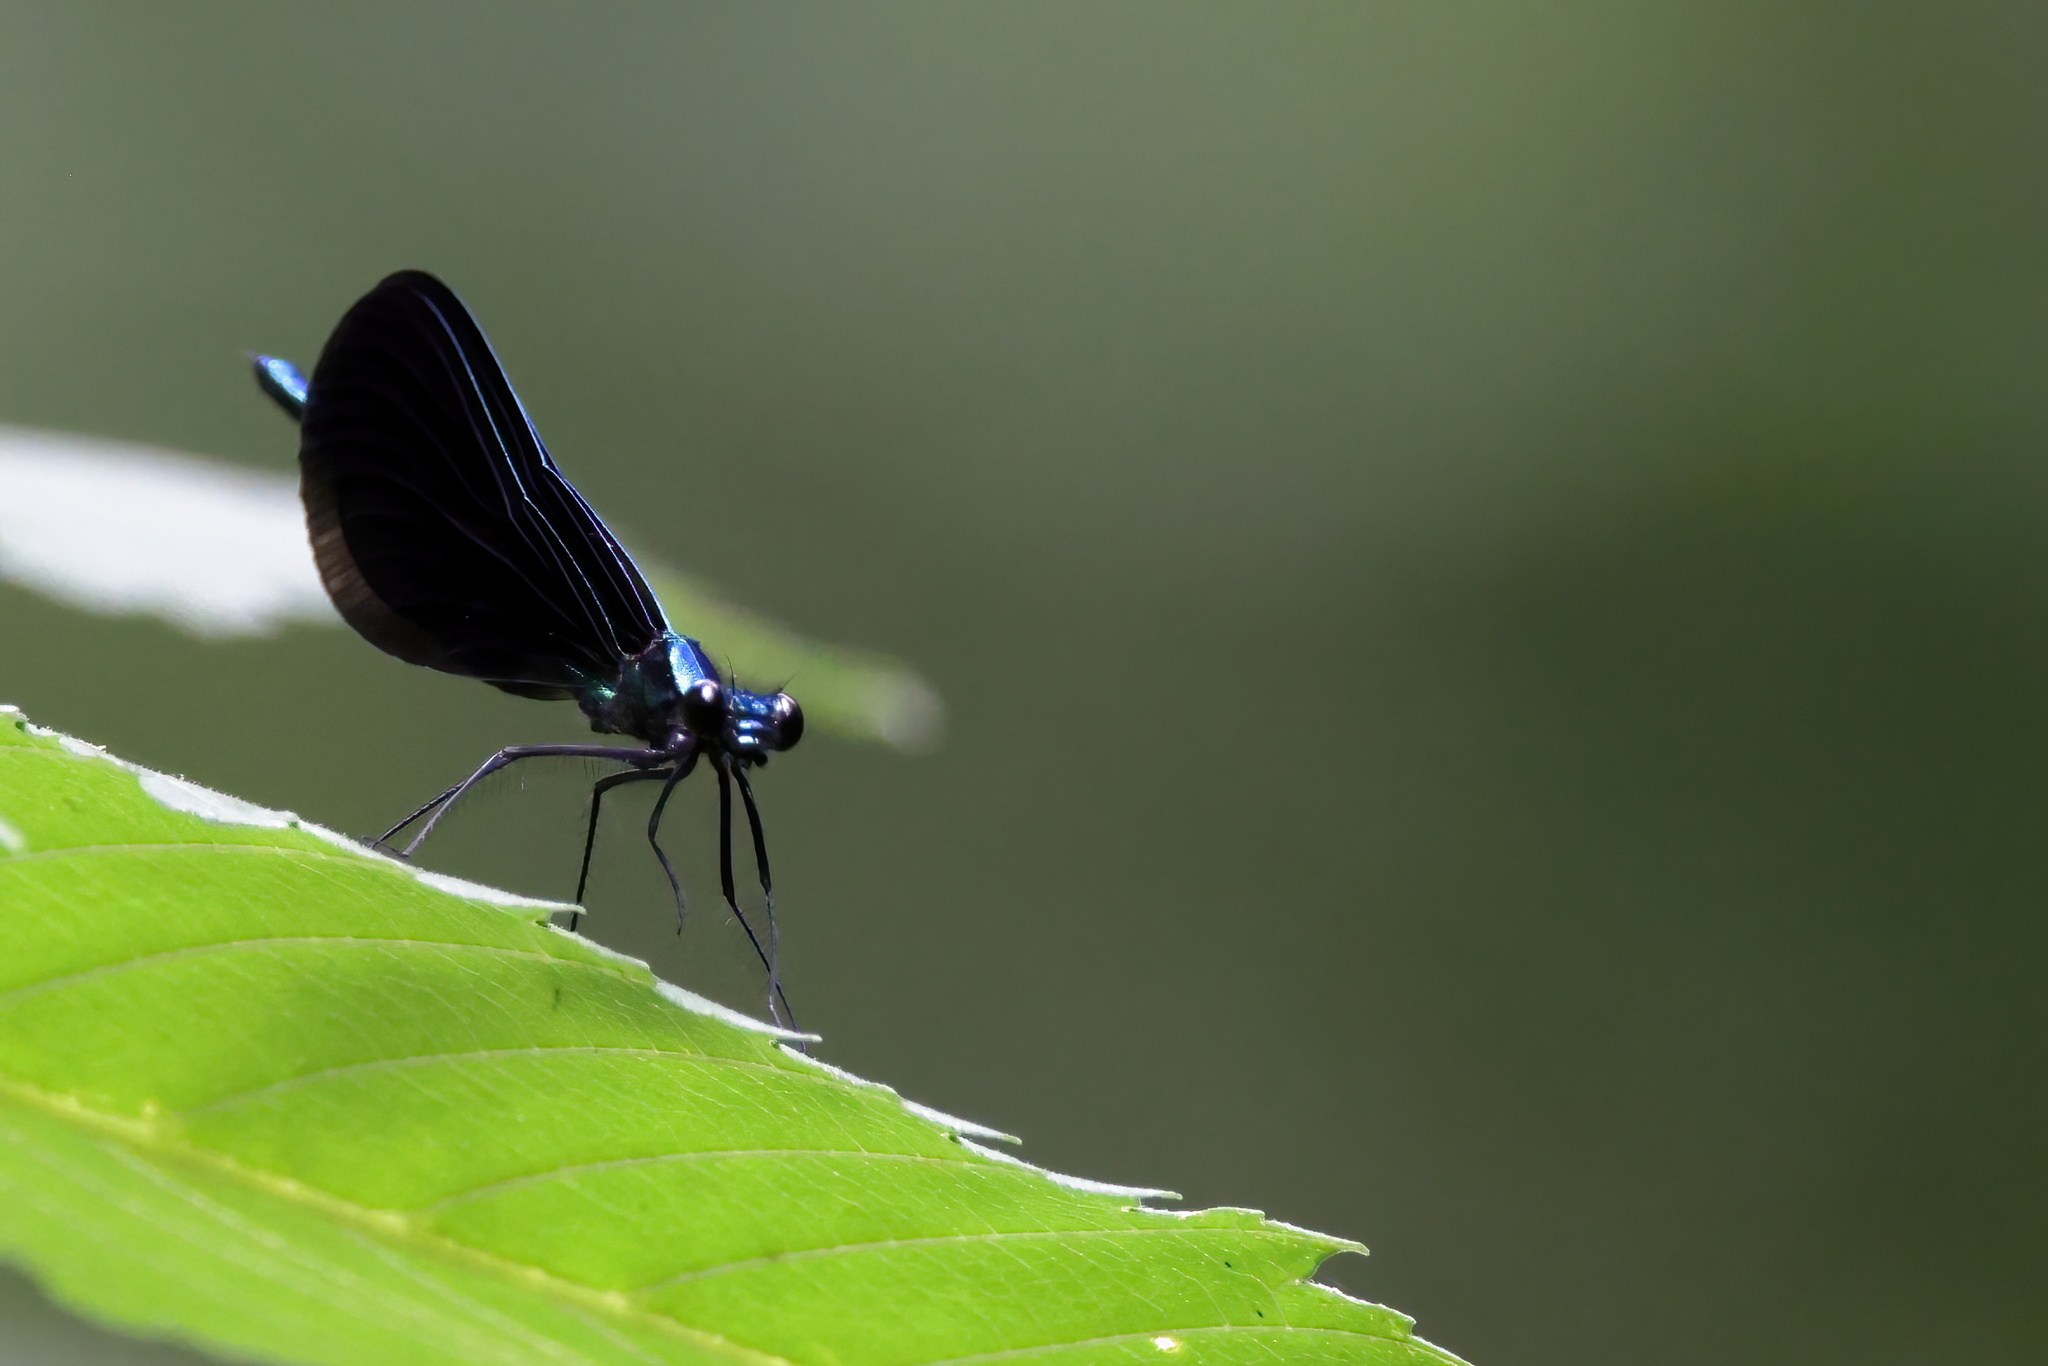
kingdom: Animalia
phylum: Arthropoda
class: Insecta
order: Odonata
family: Calopterygidae
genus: Calopteryx
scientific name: Calopteryx maculata
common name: Ebony jewelwing
